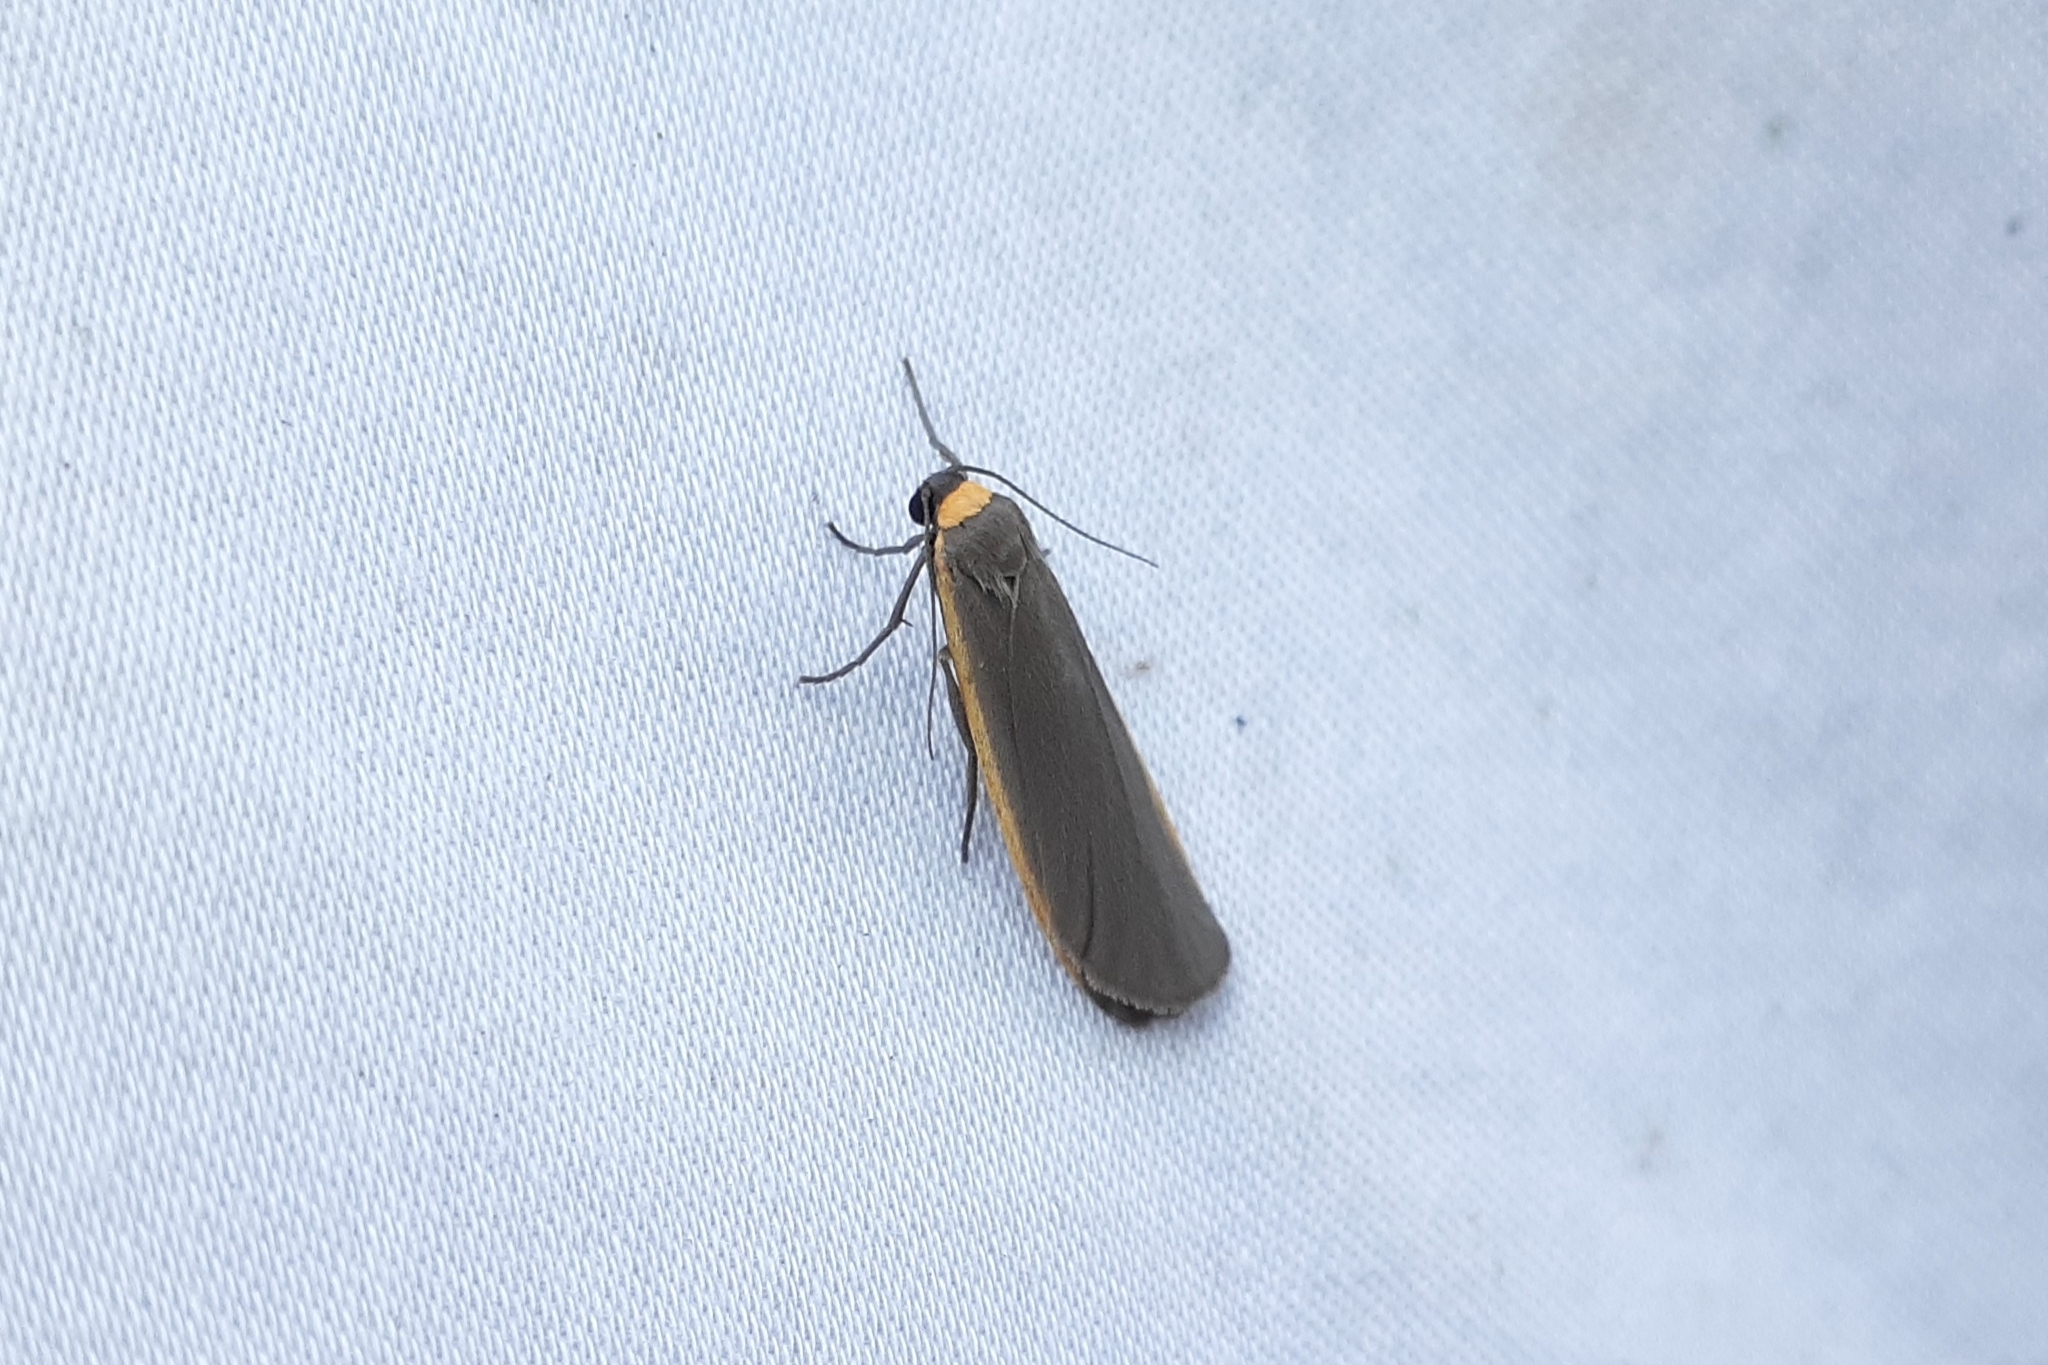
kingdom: Animalia
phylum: Arthropoda
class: Insecta
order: Lepidoptera
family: Erebidae
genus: Manulea
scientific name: Manulea bicolor
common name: Bicolored moth
